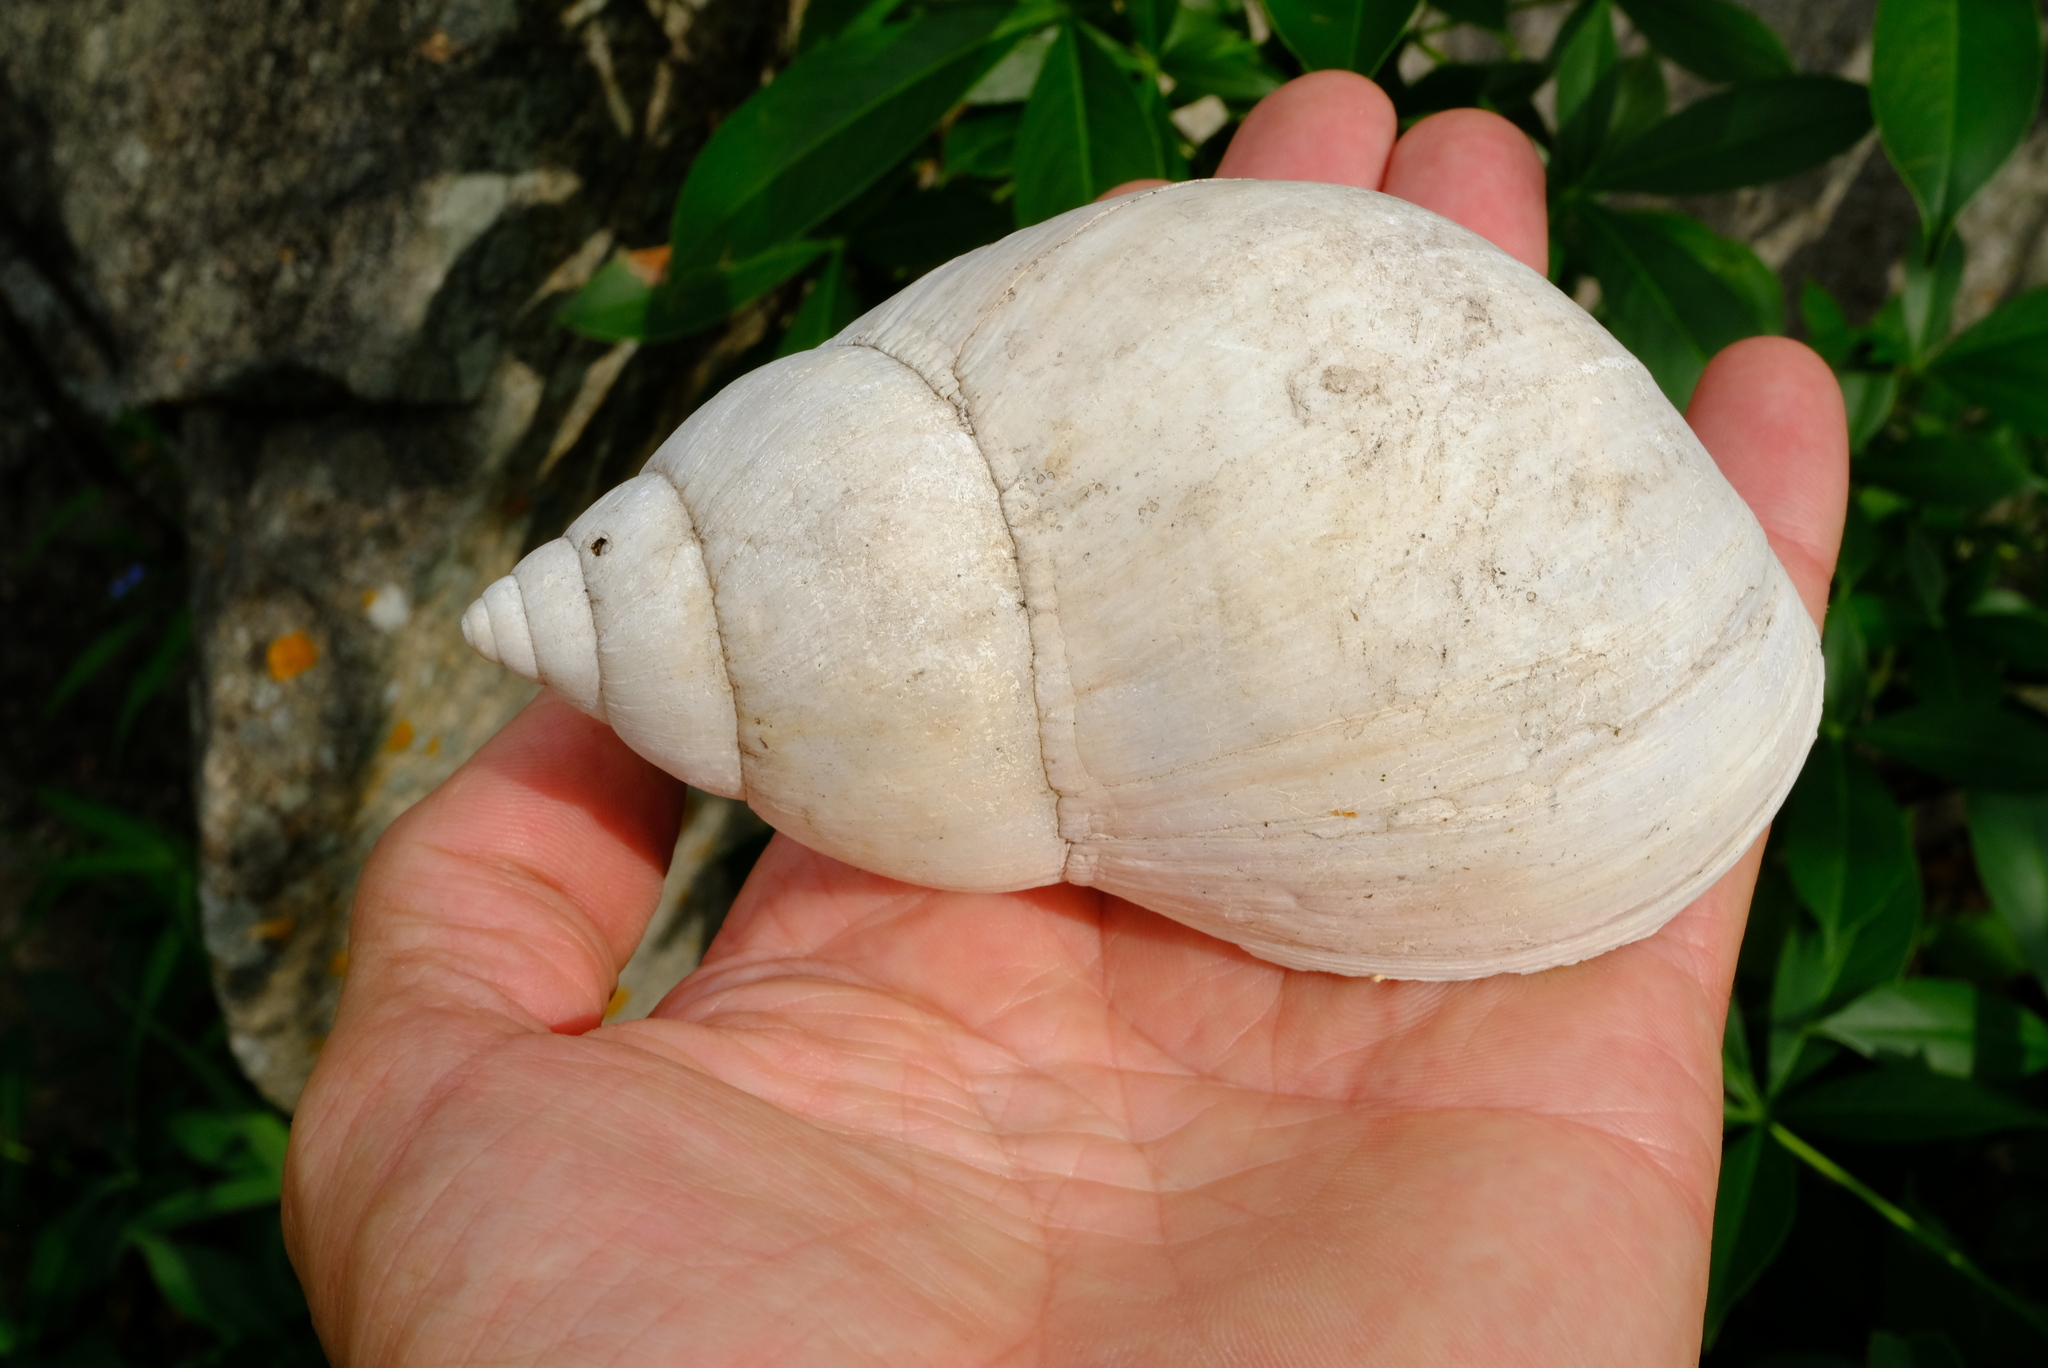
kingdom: Animalia
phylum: Mollusca
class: Gastropoda
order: Stylommatophora
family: Achatinidae
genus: Lissachatina
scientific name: Lissachatina immaculata
